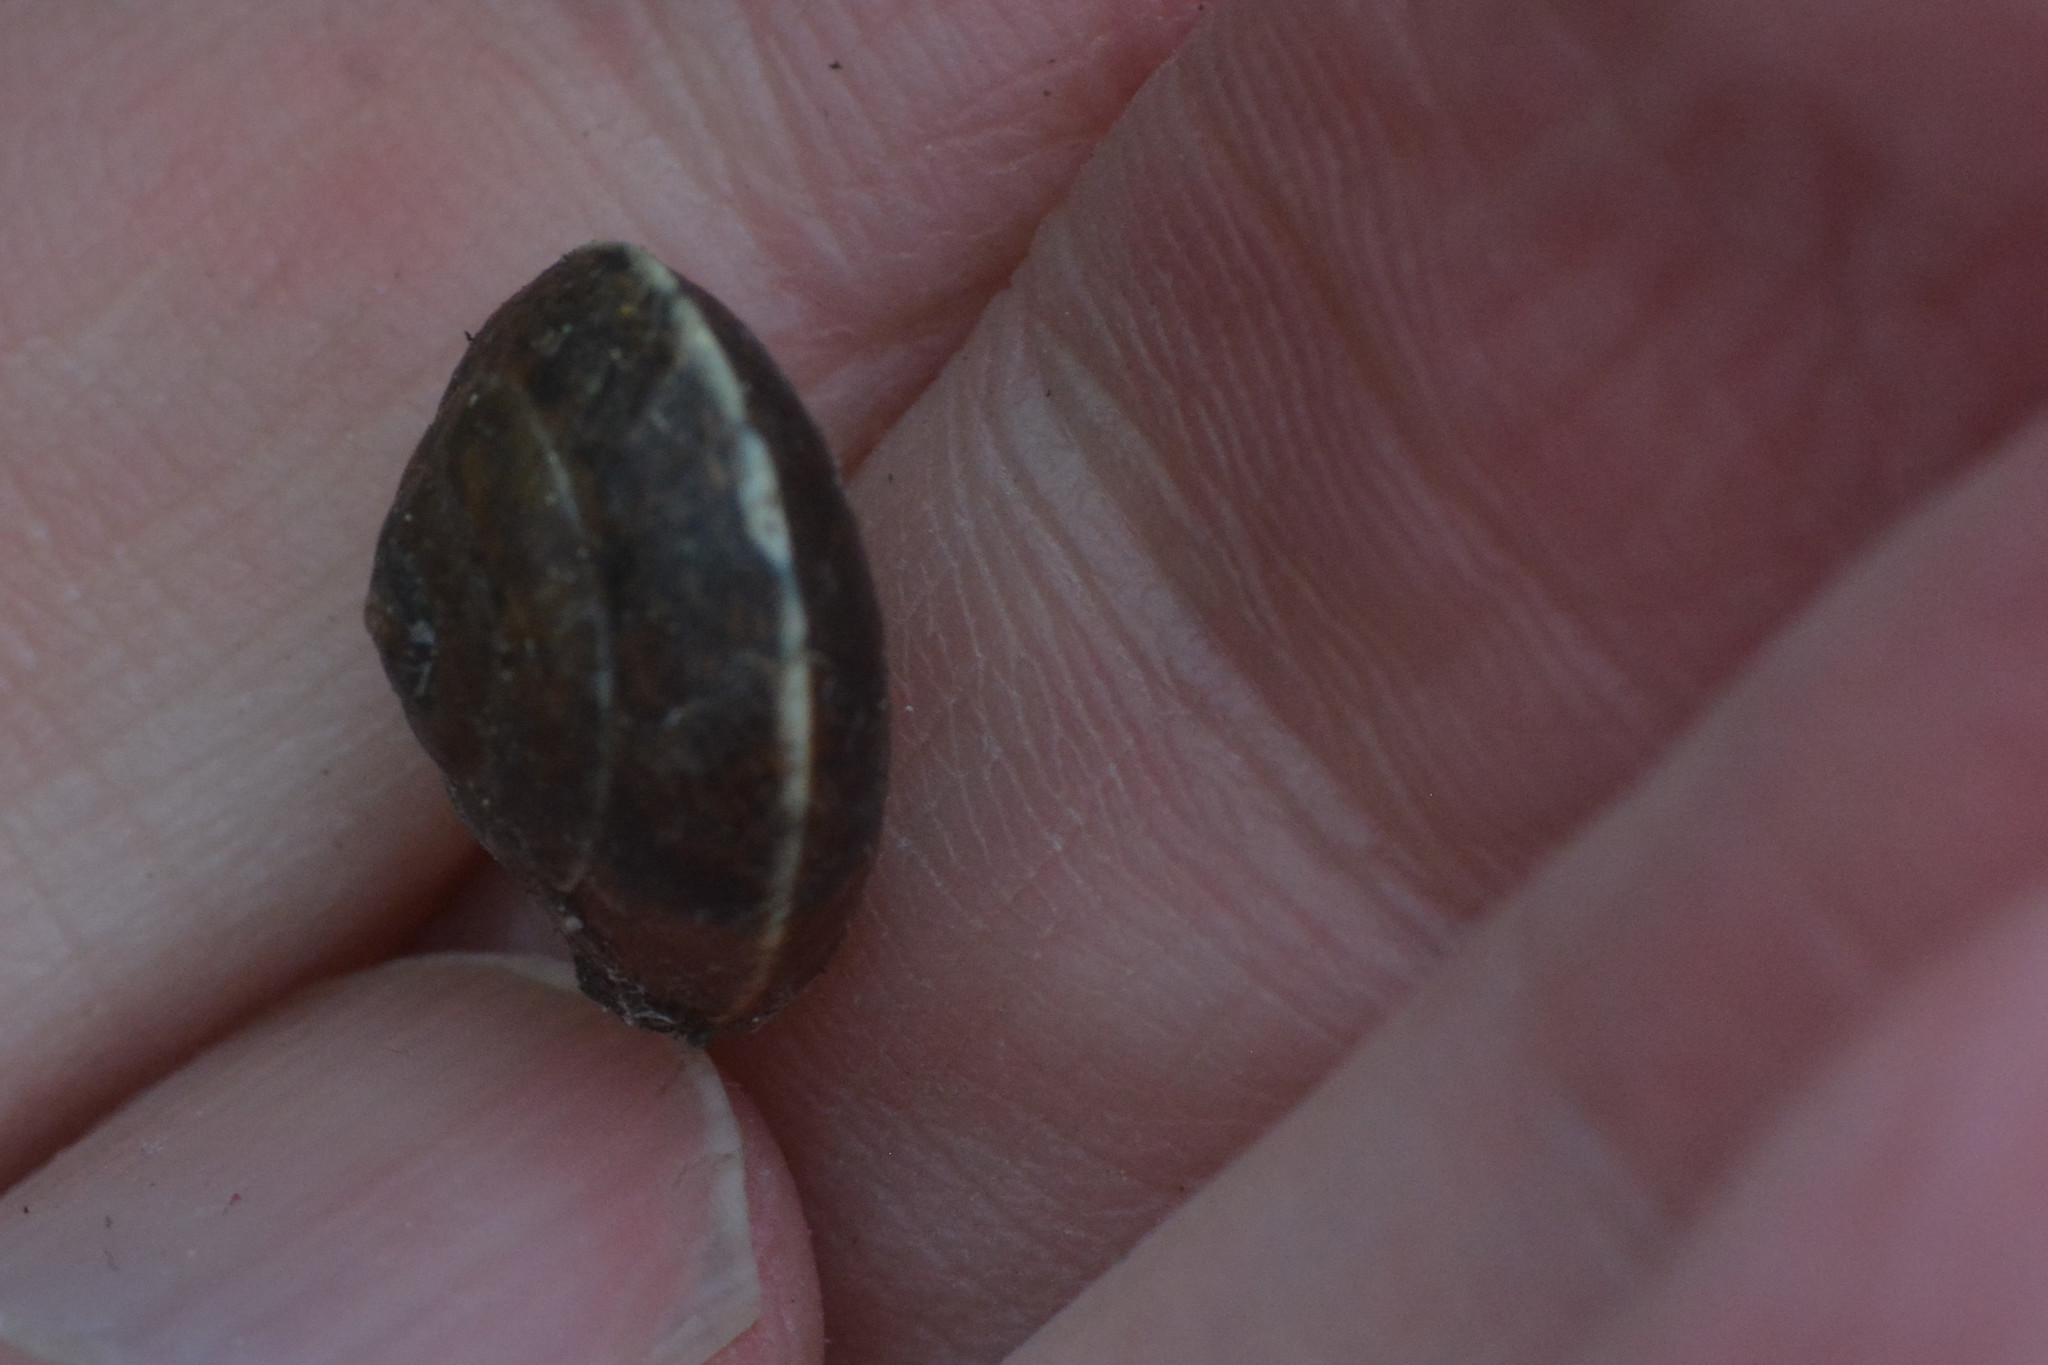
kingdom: Animalia
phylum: Mollusca
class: Gastropoda
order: Stylommatophora
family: Hygromiidae
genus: Hygromia
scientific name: Hygromia cinctella
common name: Girdled snail
